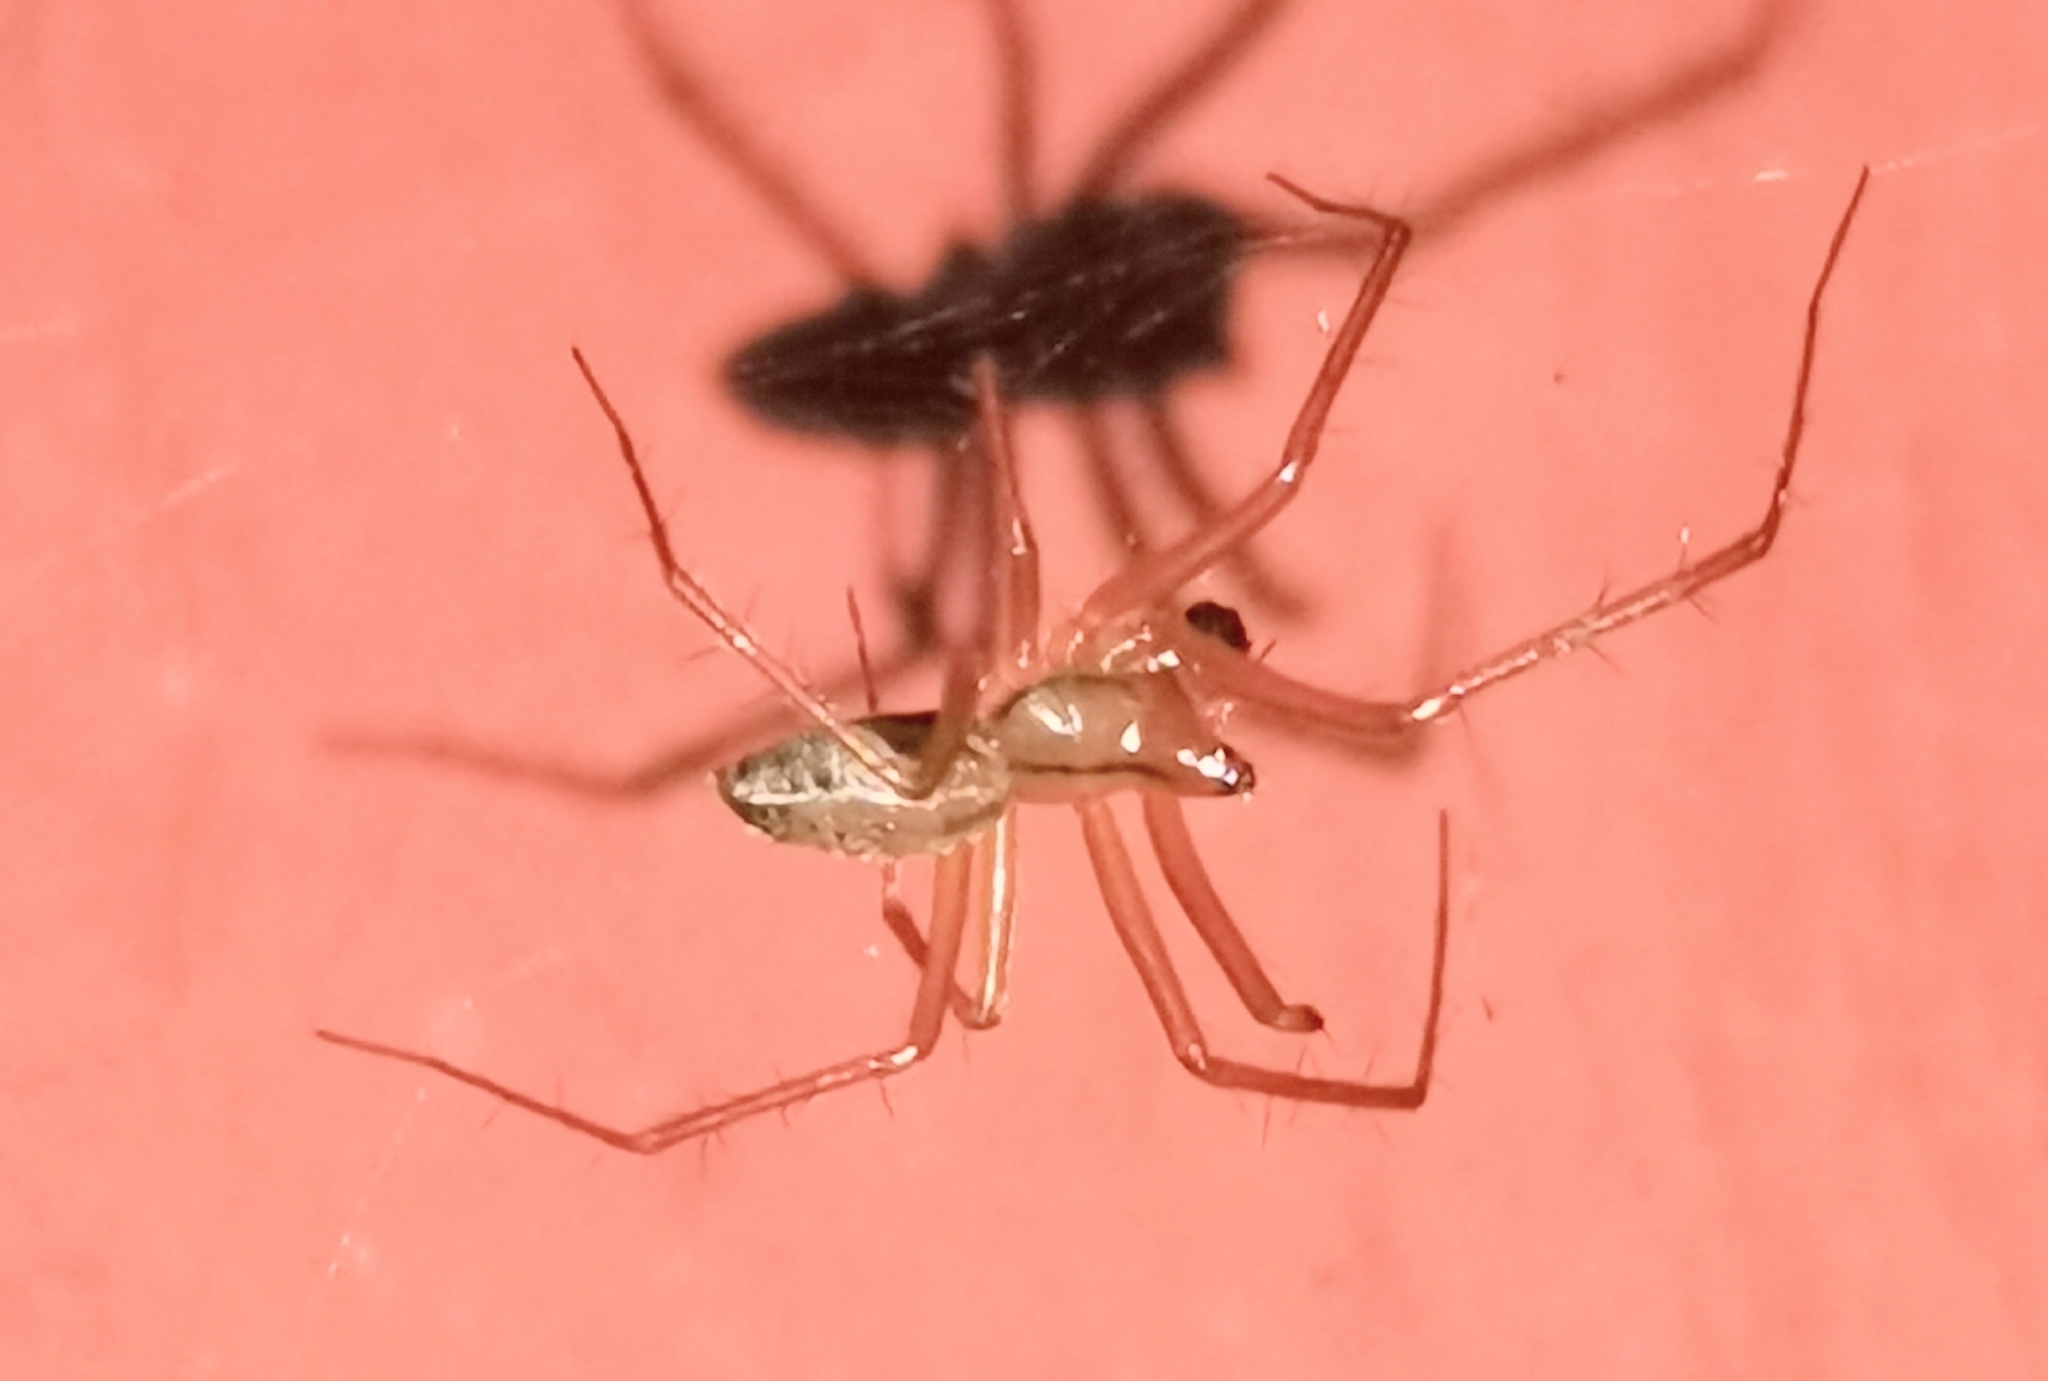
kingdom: Animalia
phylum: Arthropoda
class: Arachnida
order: Araneae
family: Linyphiidae
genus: Bolyphantes
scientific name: Bolyphantes alticeps
